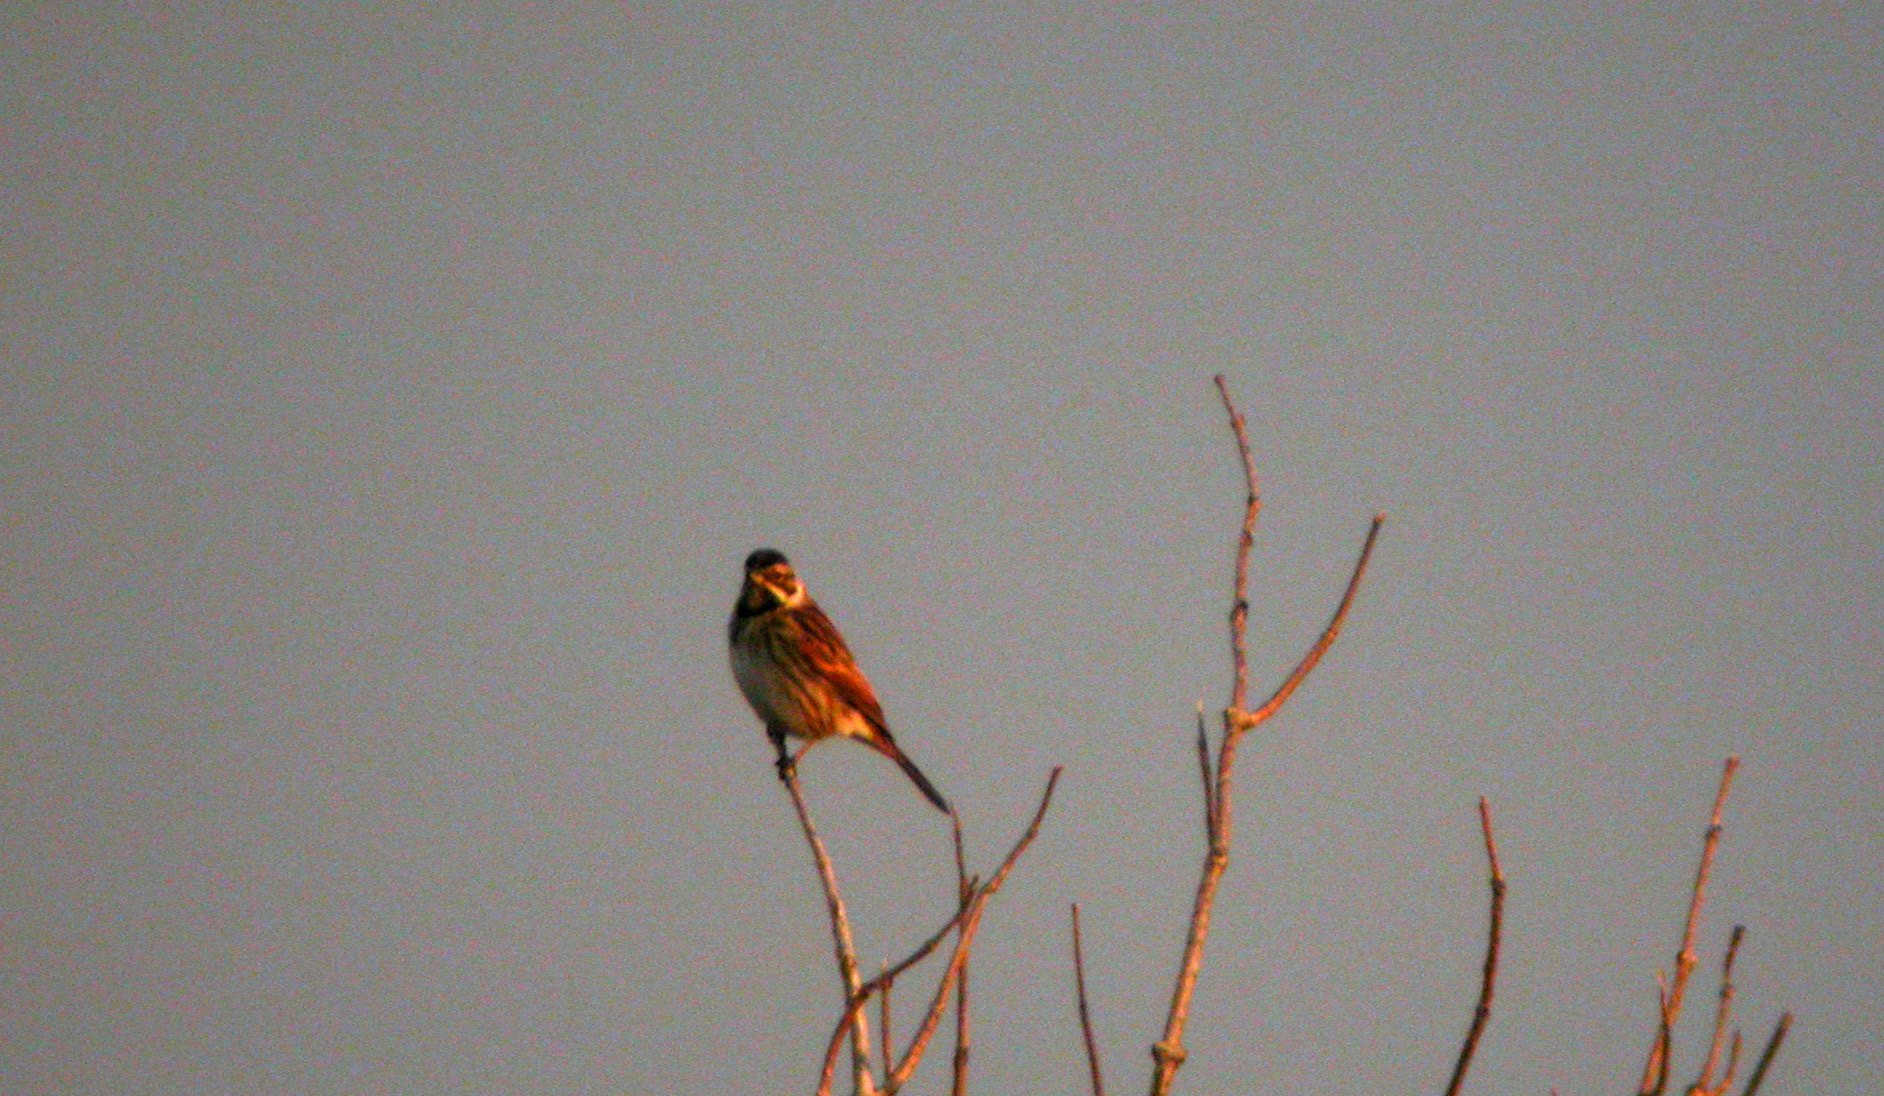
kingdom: Animalia
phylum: Chordata
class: Aves
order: Passeriformes
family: Emberizidae
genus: Emberiza
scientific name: Emberiza schoeniclus
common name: Reed bunting
